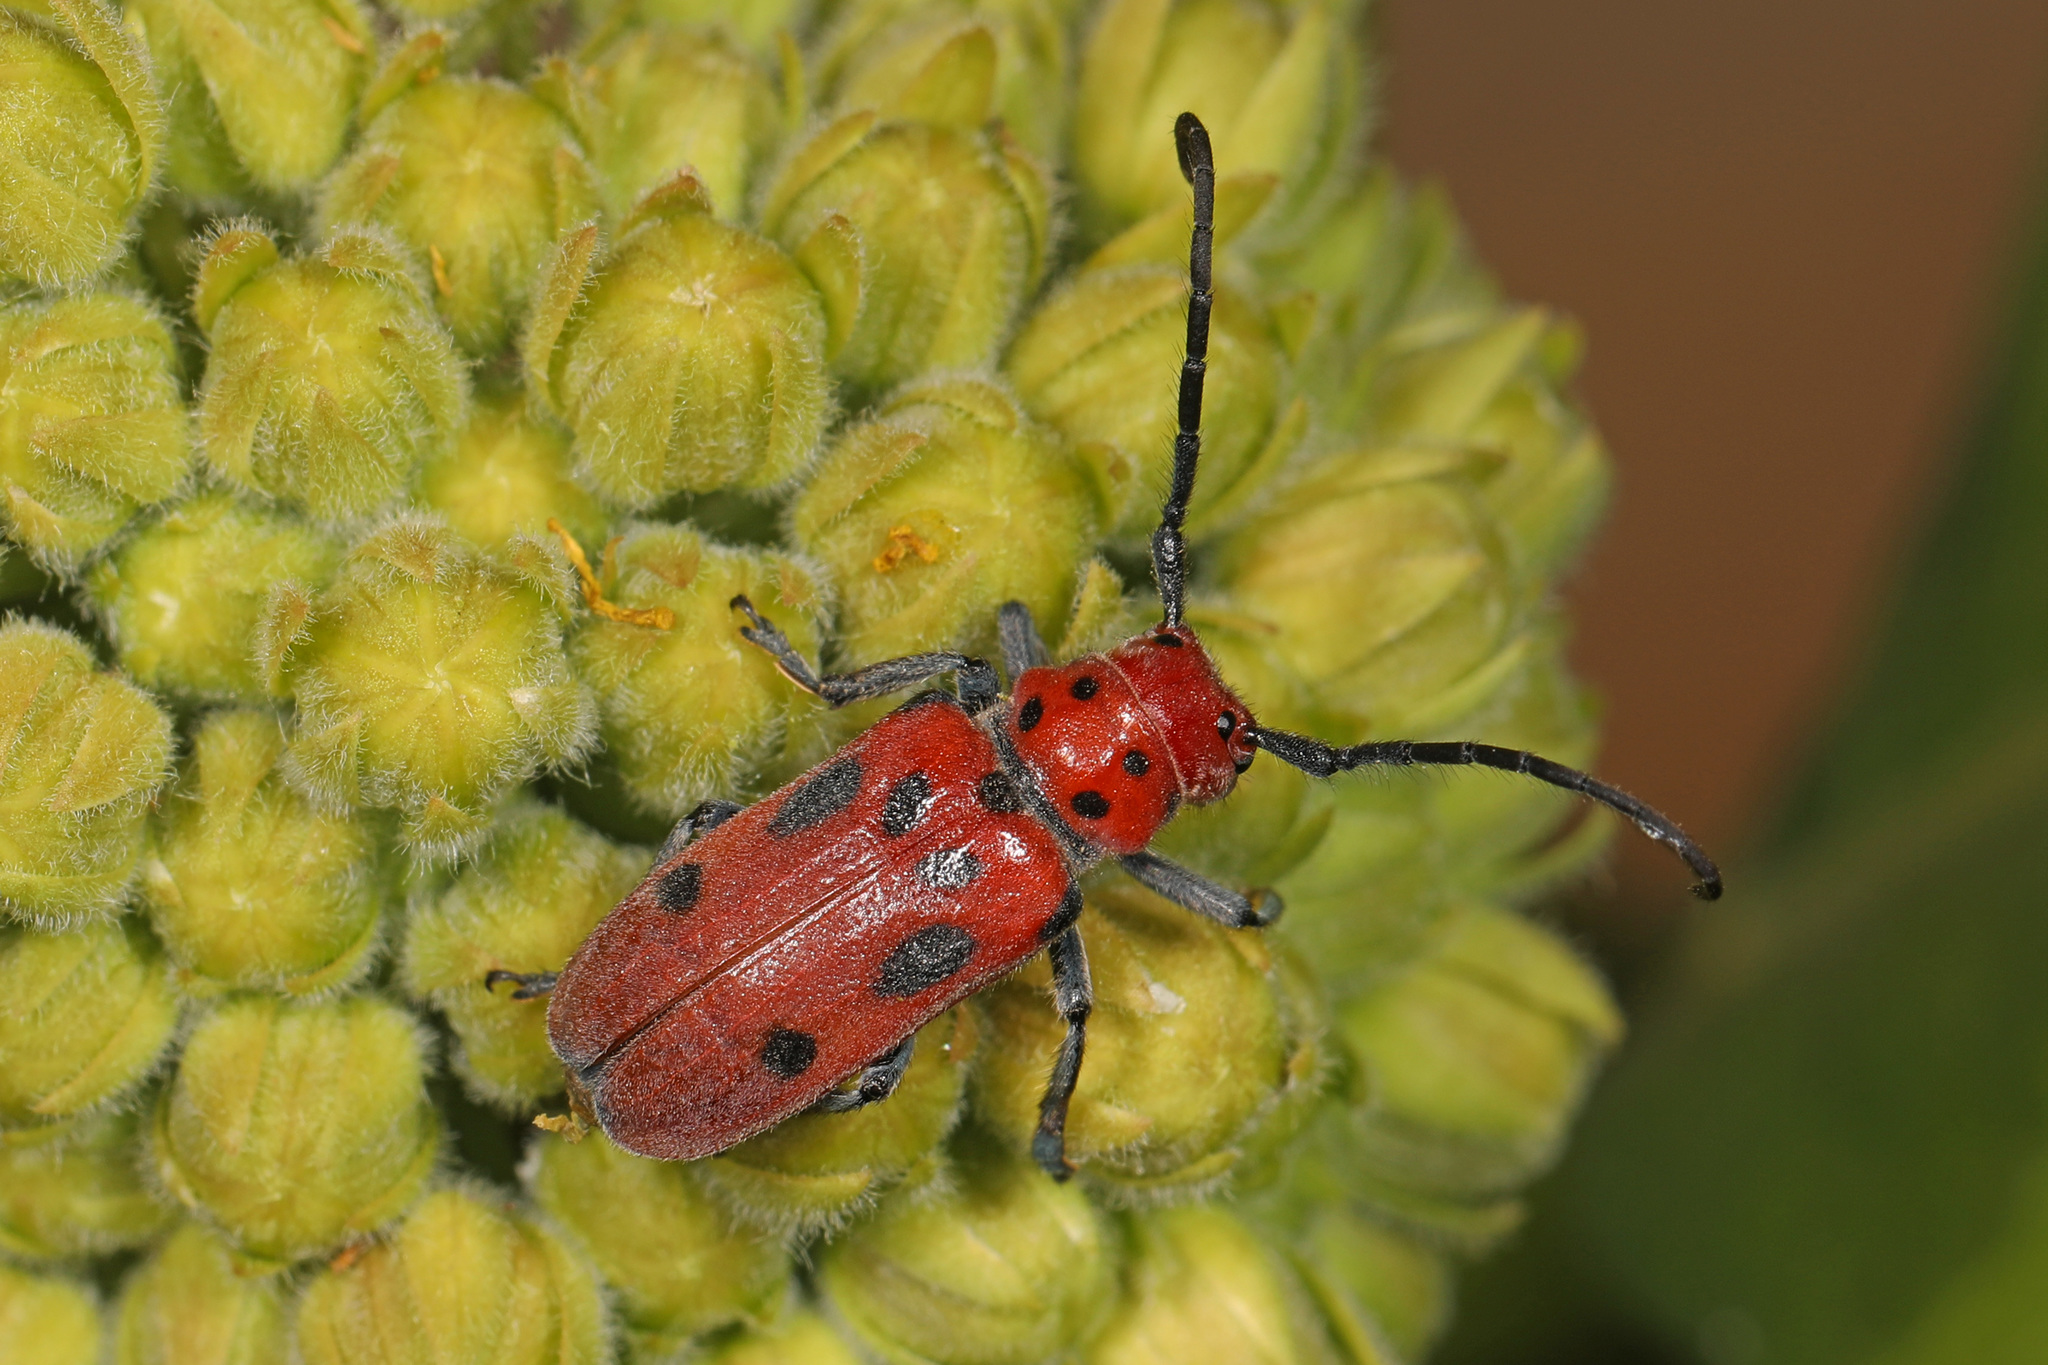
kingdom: Animalia
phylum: Arthropoda
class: Insecta
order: Coleoptera
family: Cerambycidae
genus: Tetraopes
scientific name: Tetraopes tetrophthalmus
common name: Red milkweed beetle
